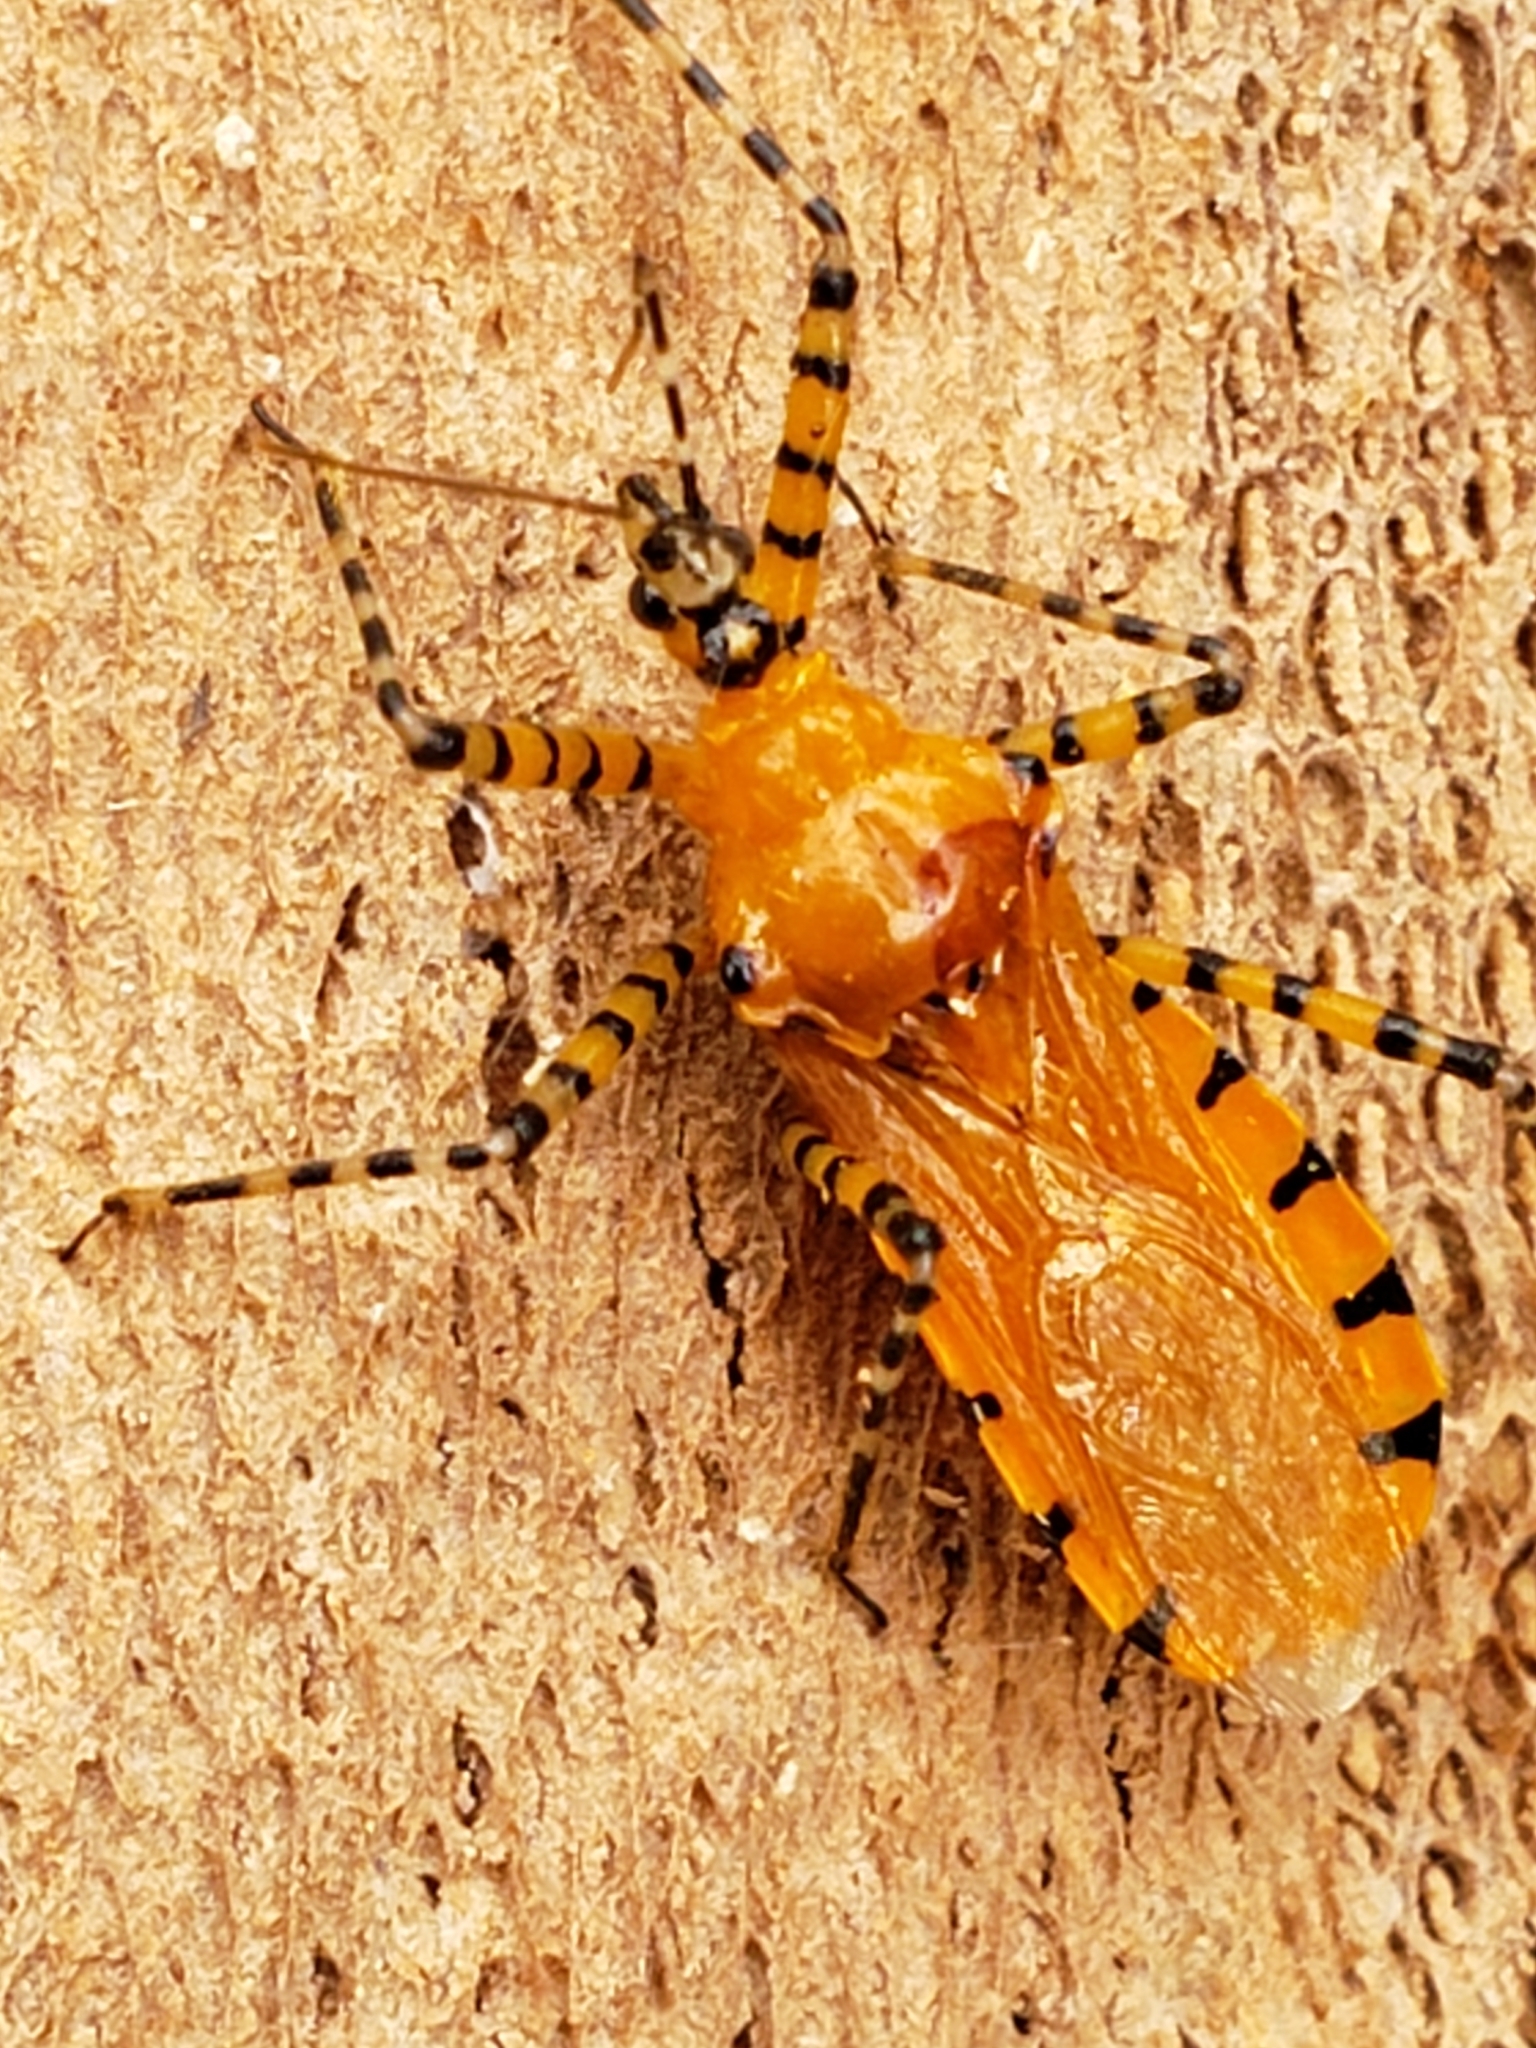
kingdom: Animalia
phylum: Arthropoda
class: Insecta
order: Hemiptera
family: Reduviidae
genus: Pselliopus
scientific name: Pselliopus barberi
